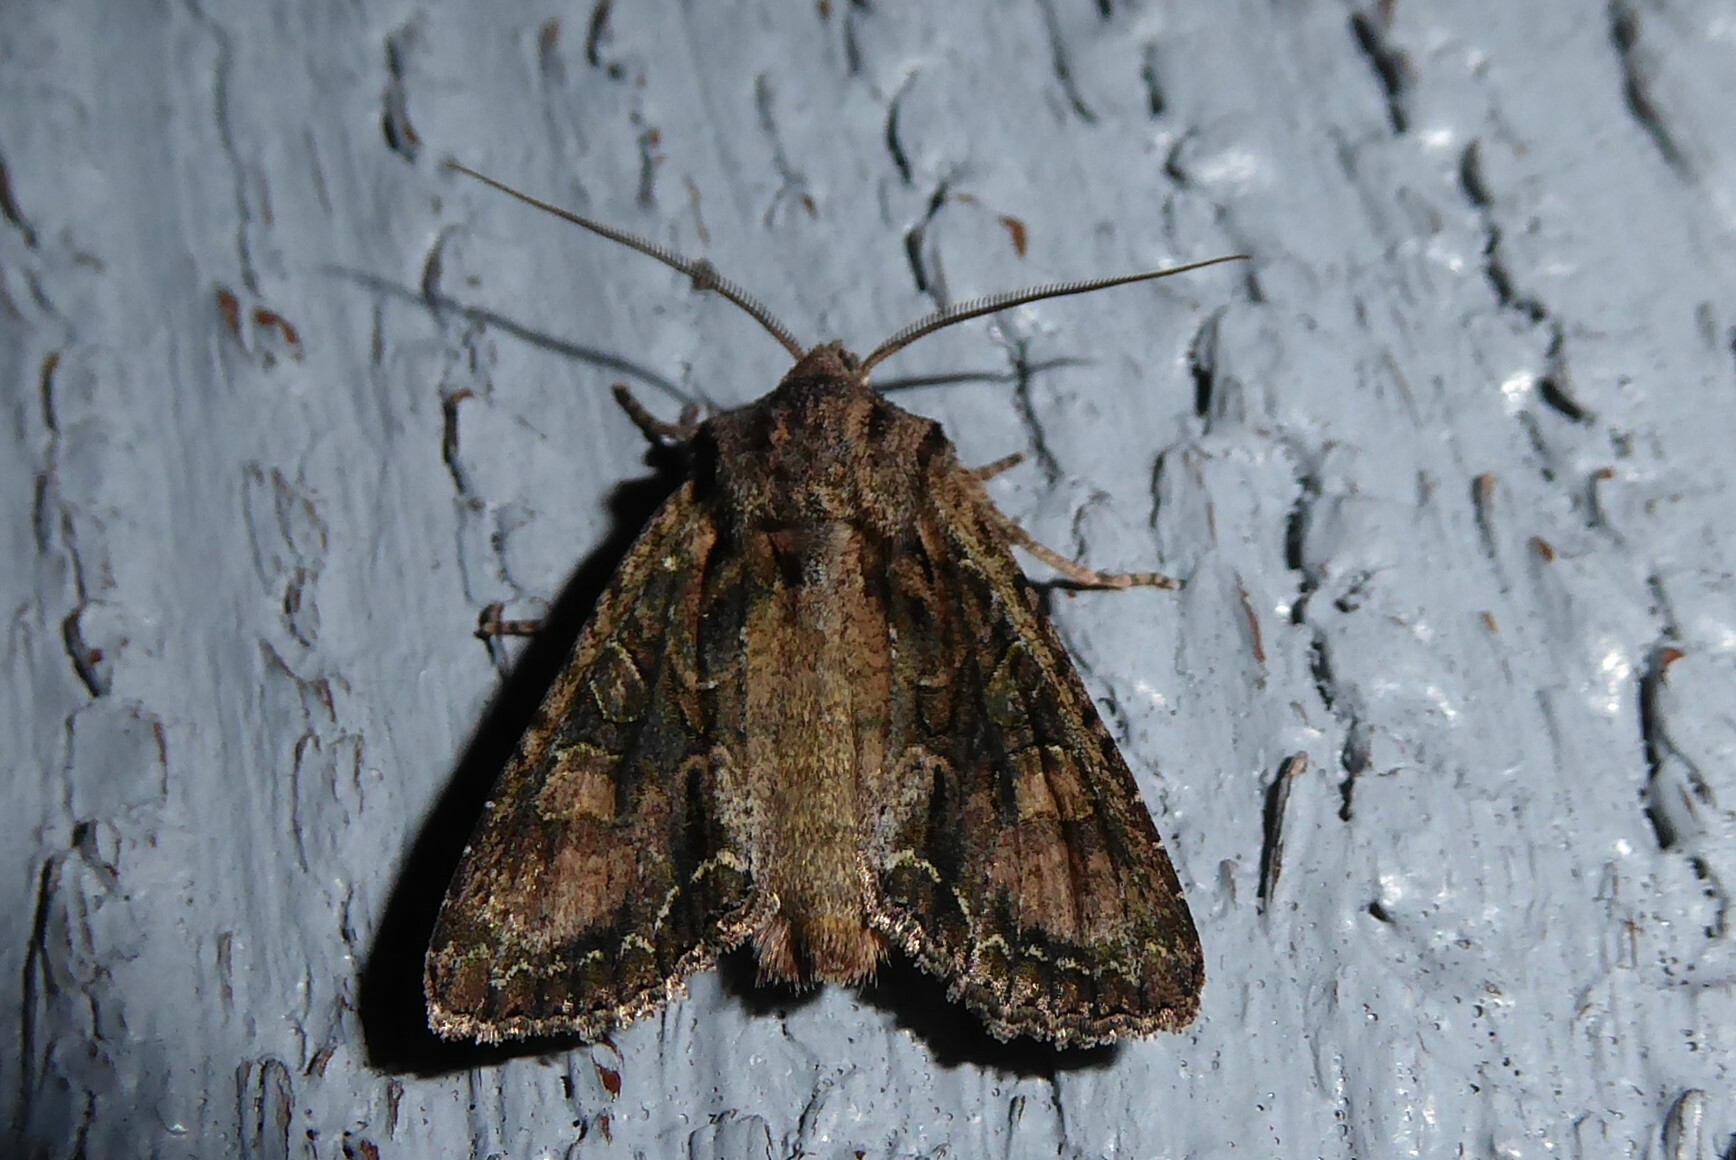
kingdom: Animalia
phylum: Arthropoda
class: Insecta
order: Lepidoptera
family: Noctuidae
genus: Ichneutica
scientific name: Ichneutica mutans
